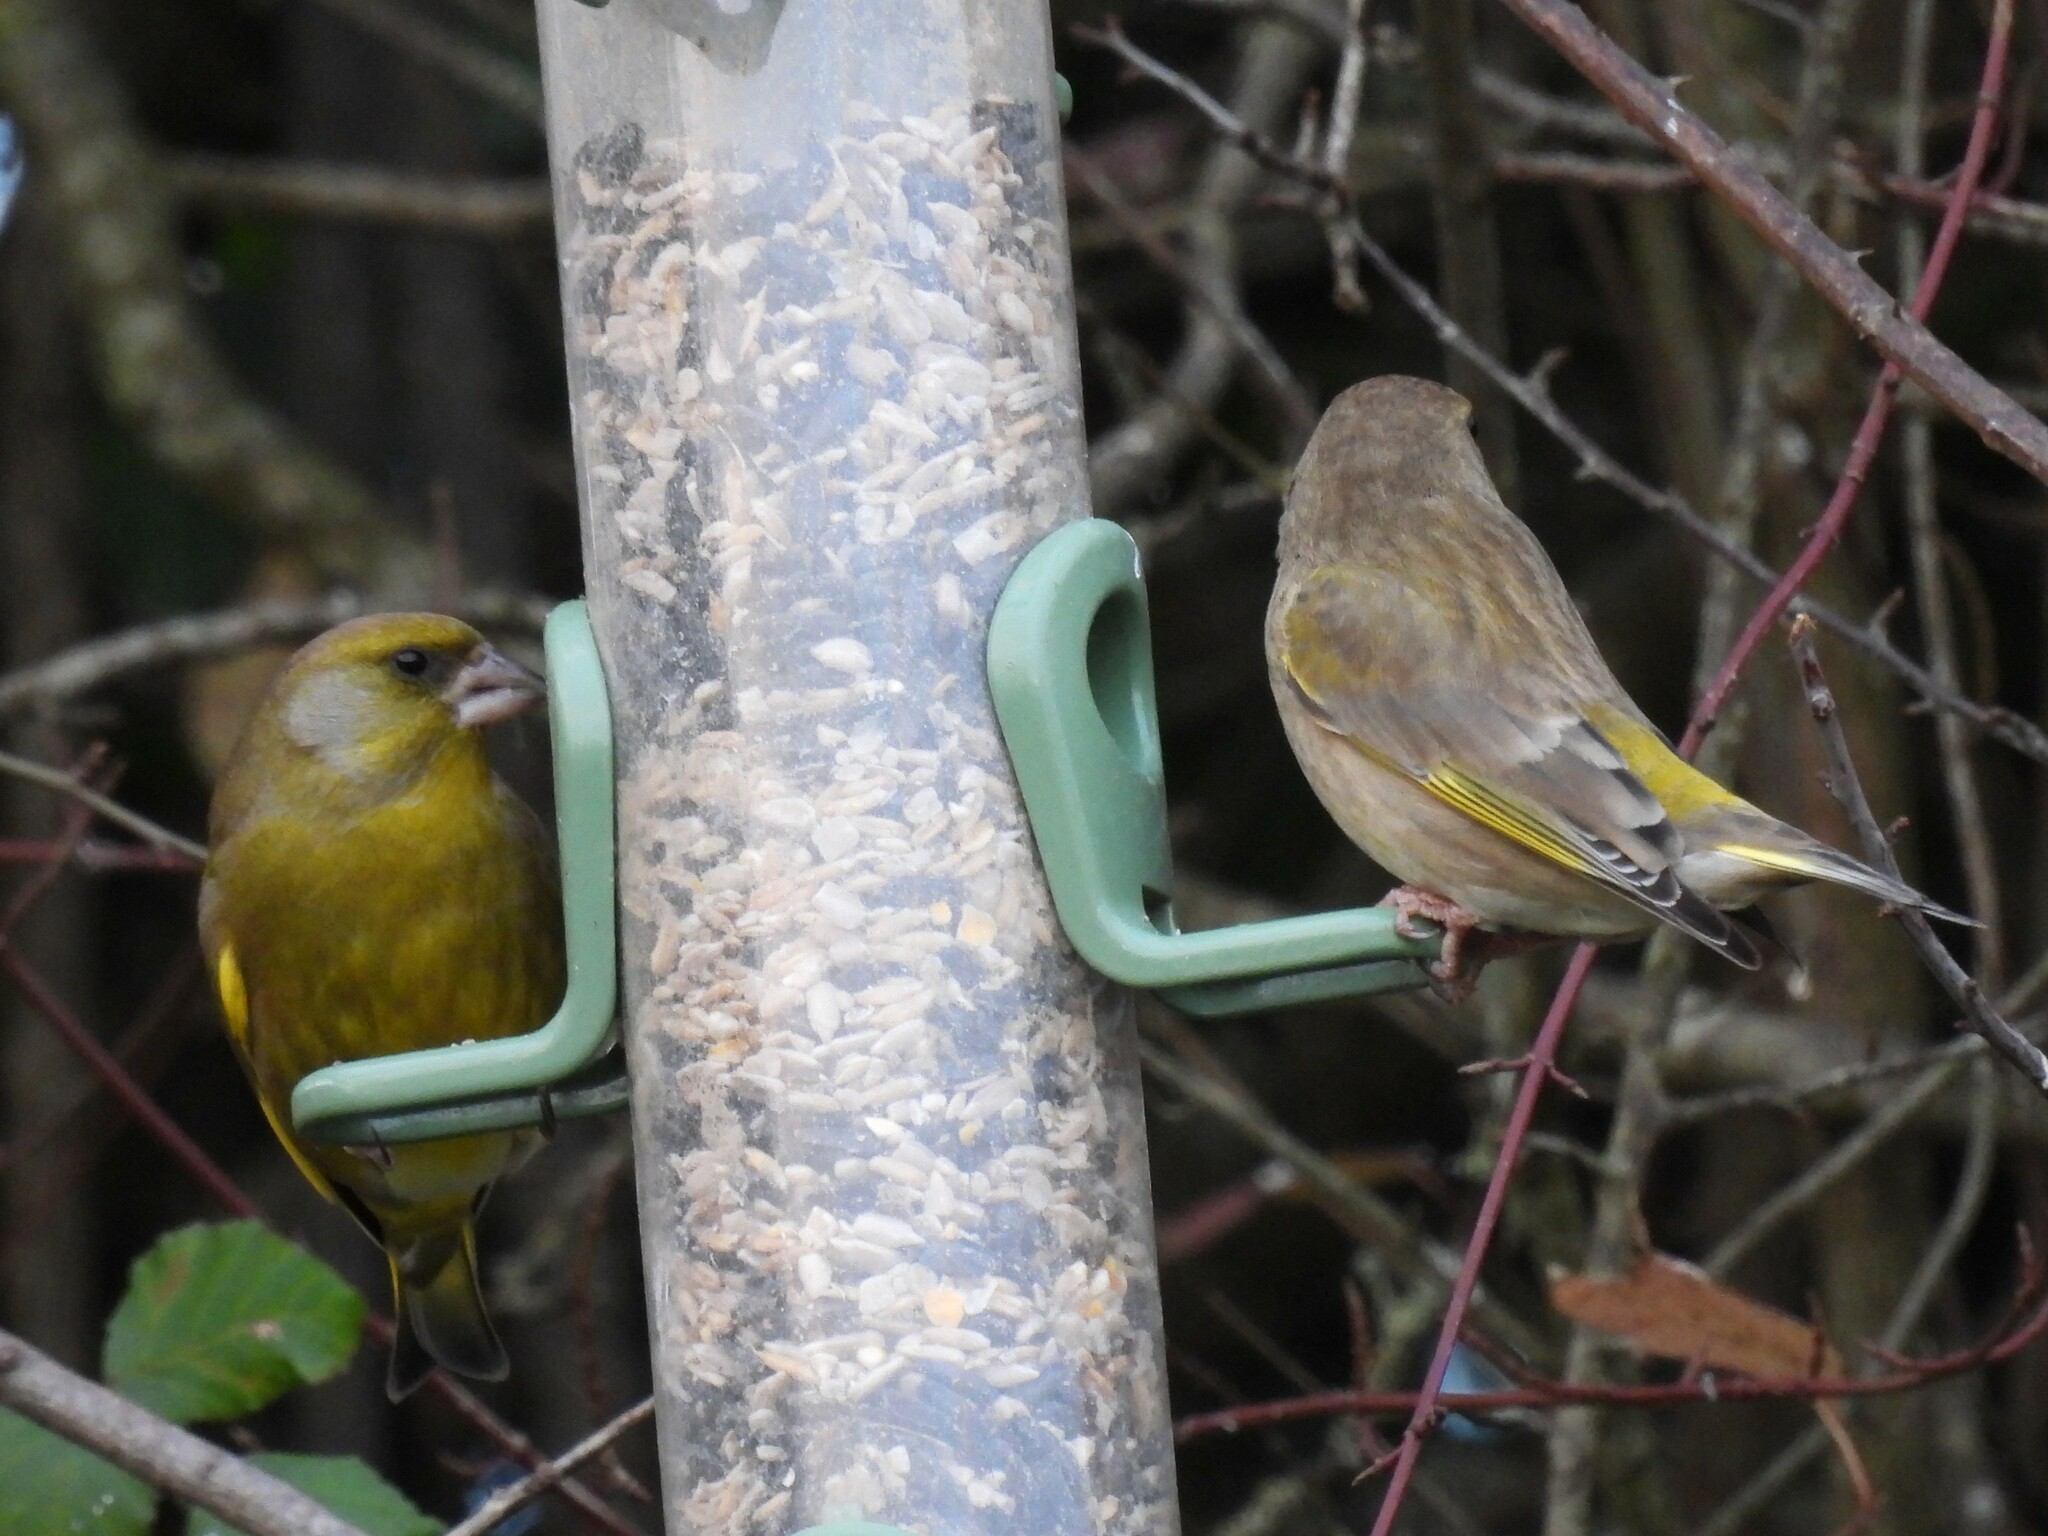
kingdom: Plantae
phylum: Tracheophyta
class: Liliopsida
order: Poales
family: Poaceae
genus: Chloris
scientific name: Chloris chloris
